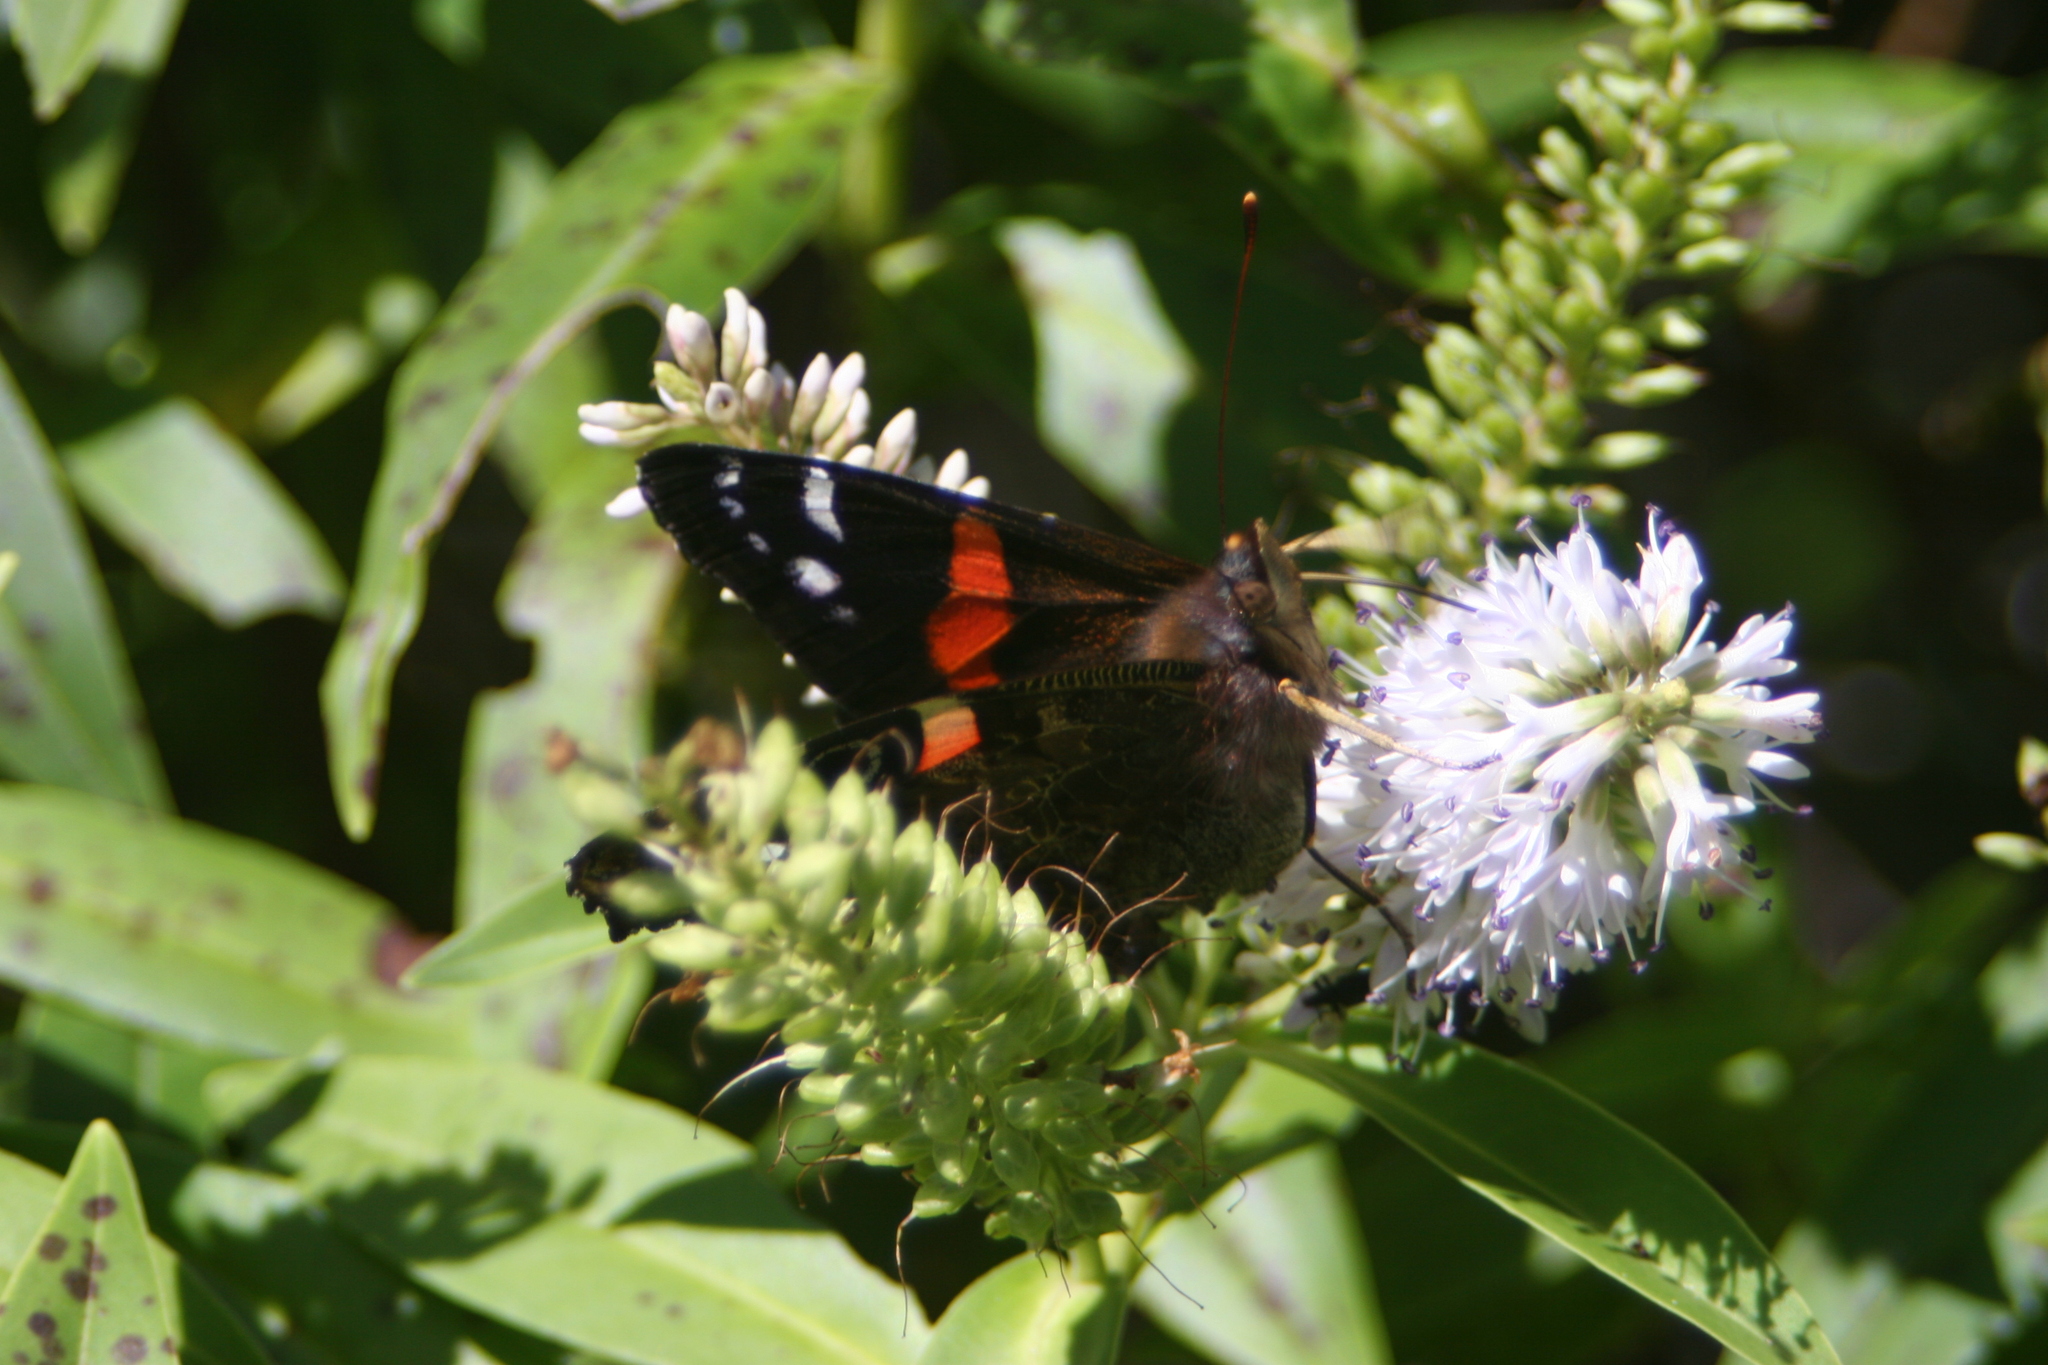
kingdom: Animalia
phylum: Arthropoda
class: Insecta
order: Lepidoptera
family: Nymphalidae
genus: Vanessa
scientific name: Vanessa gonerilla
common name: New zealand red admiral
